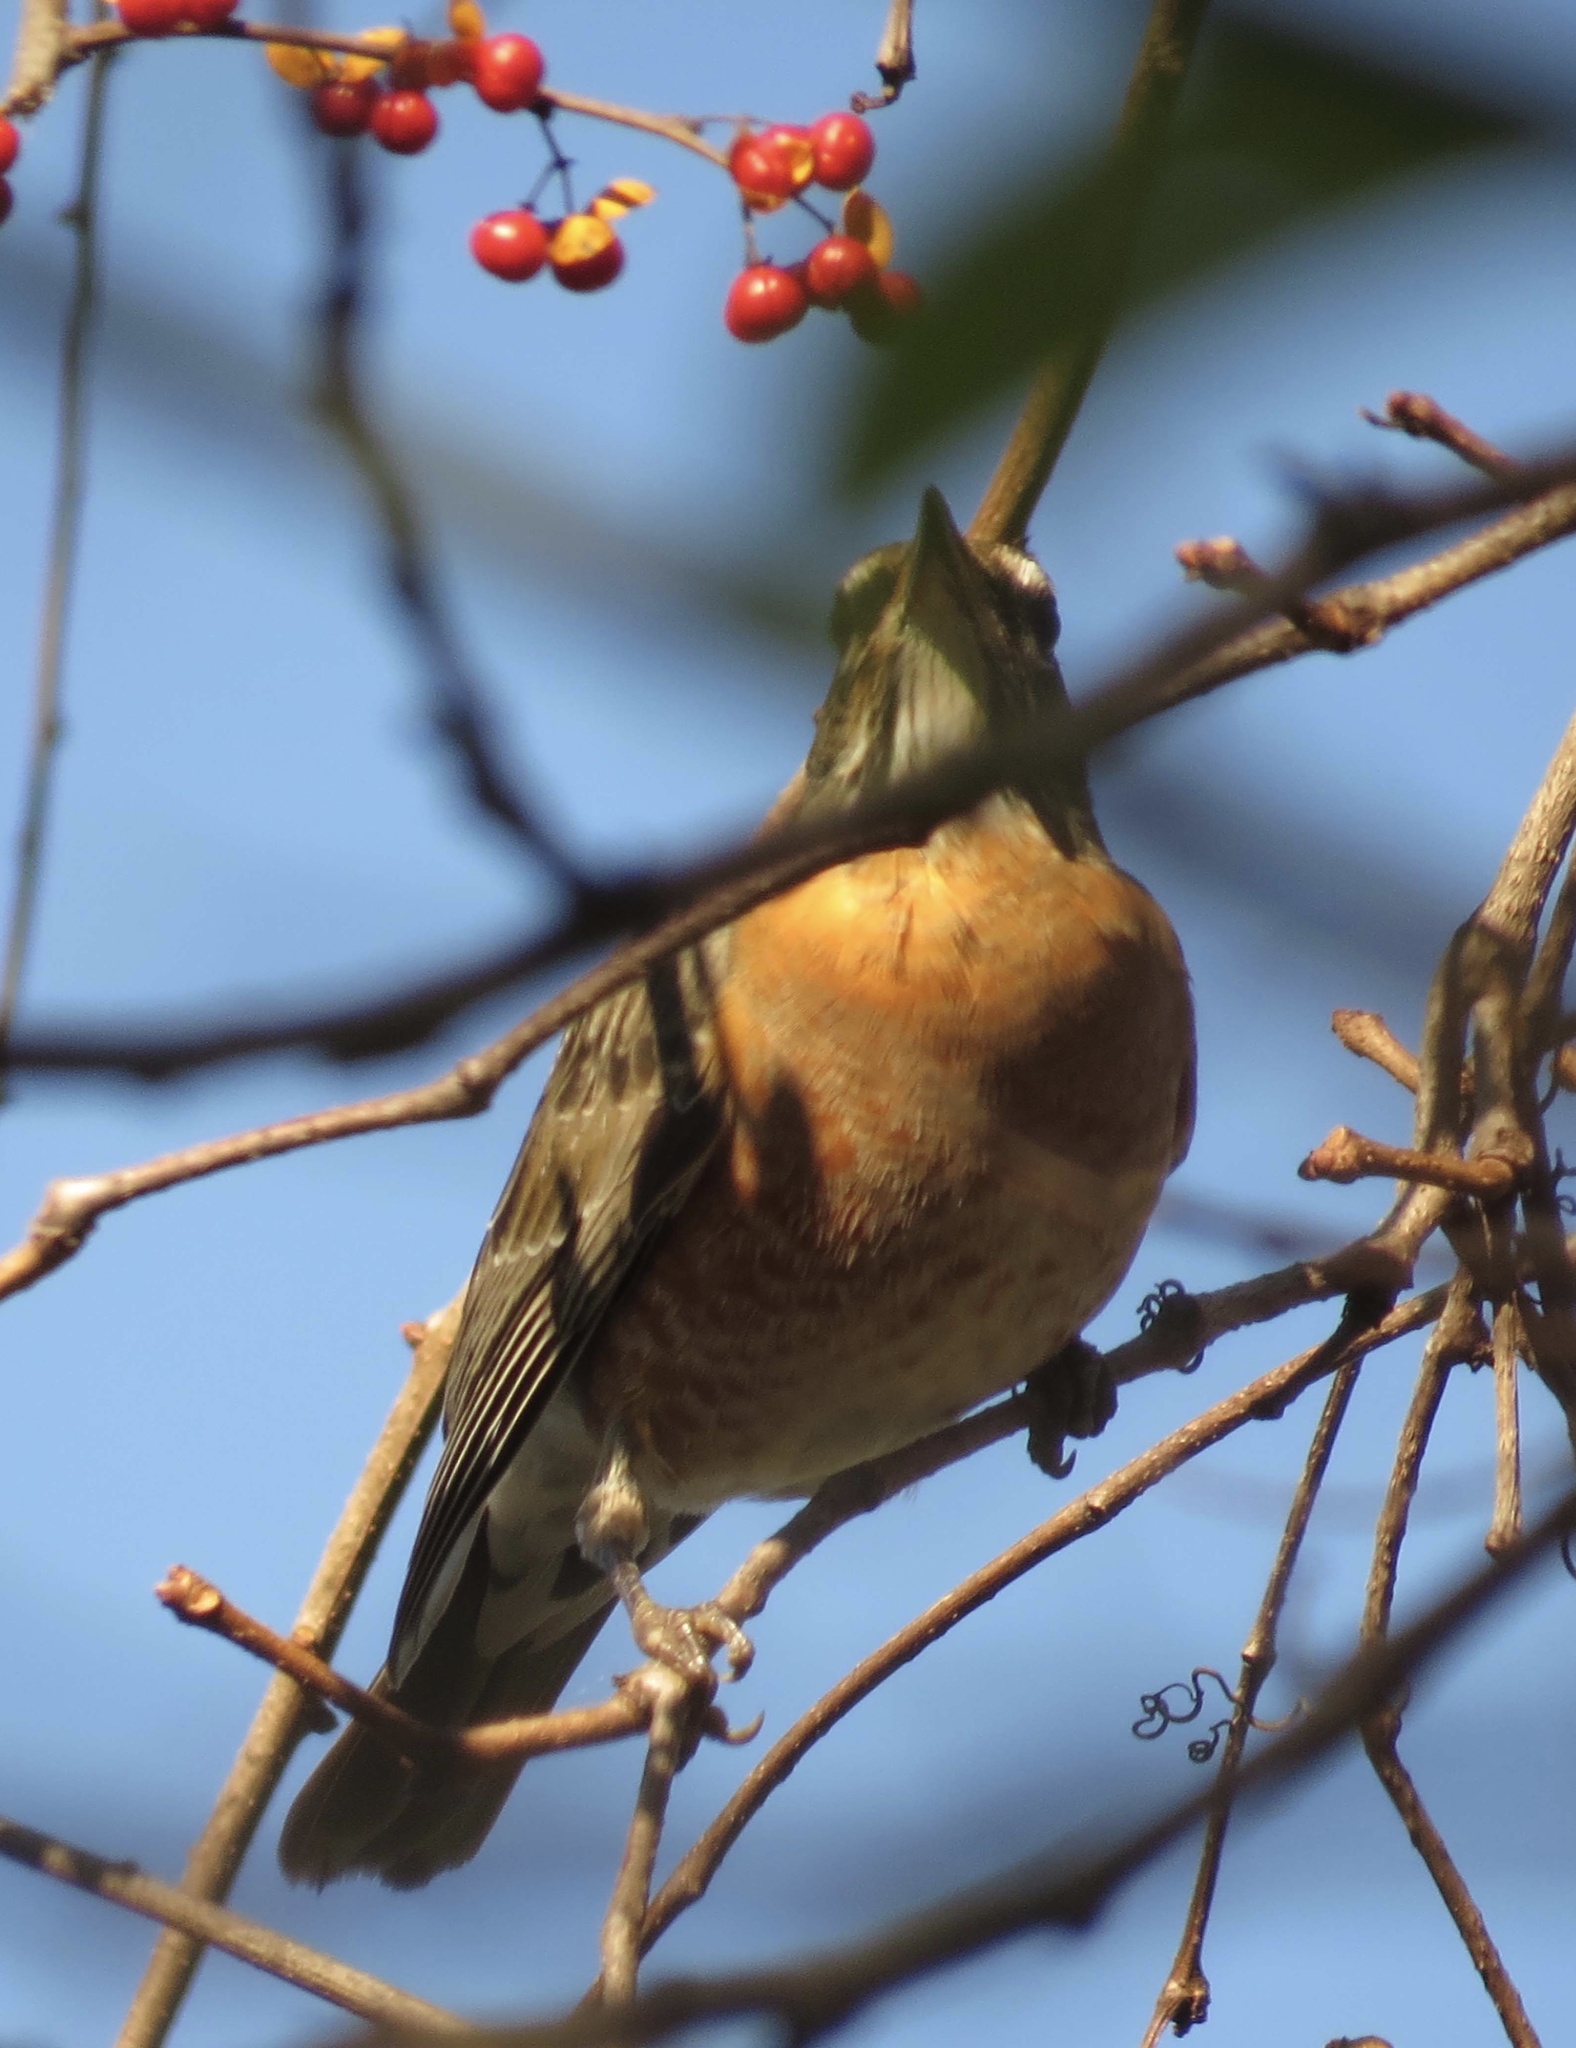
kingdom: Animalia
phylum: Chordata
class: Aves
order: Passeriformes
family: Turdidae
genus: Turdus
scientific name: Turdus migratorius
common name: American robin
